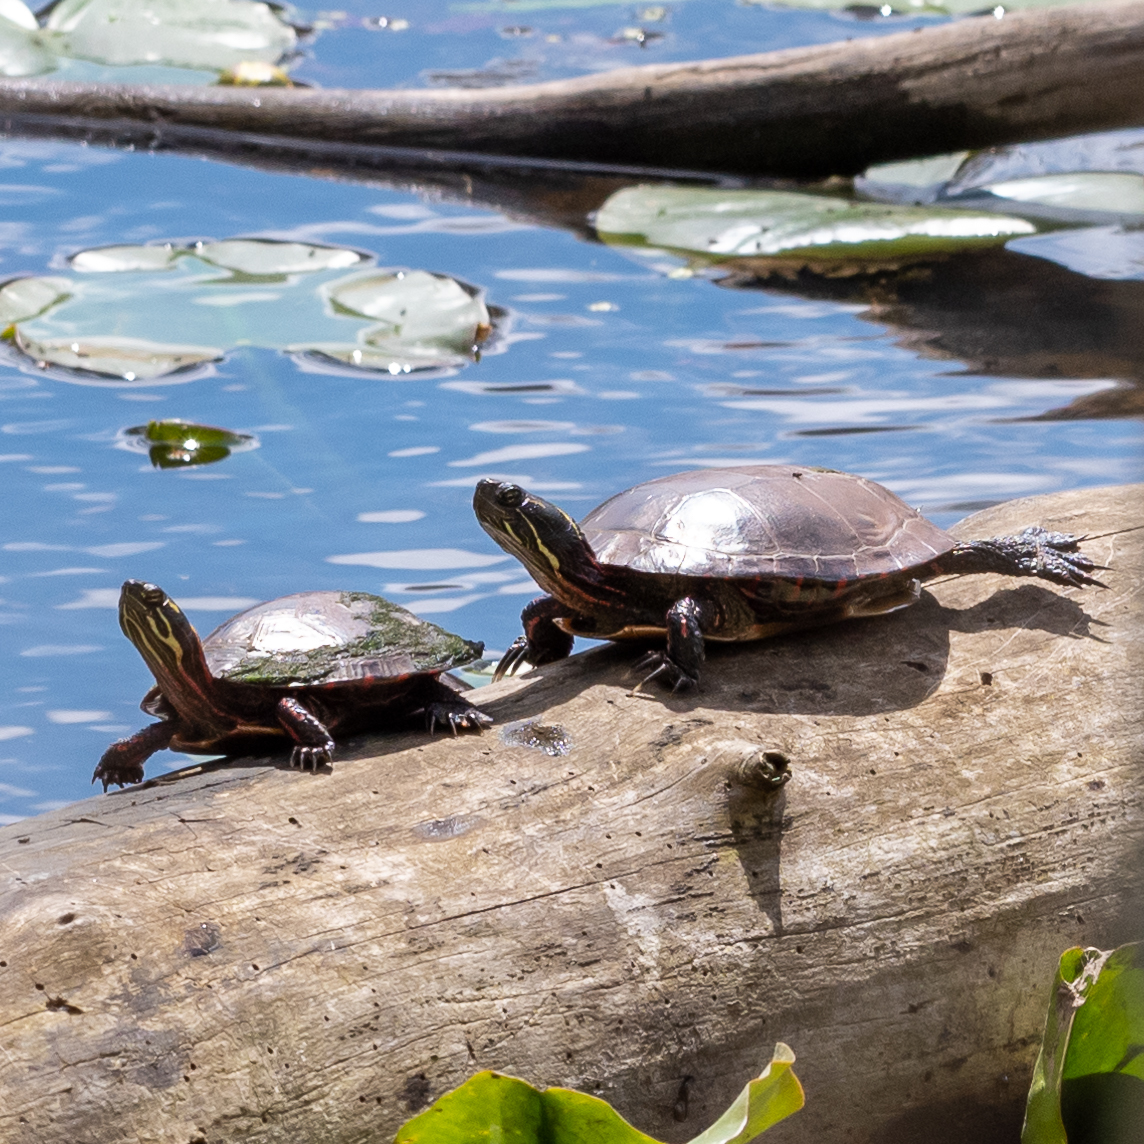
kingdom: Animalia
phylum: Chordata
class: Testudines
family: Emydidae
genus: Chrysemys
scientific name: Chrysemys picta
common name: Painted turtle
